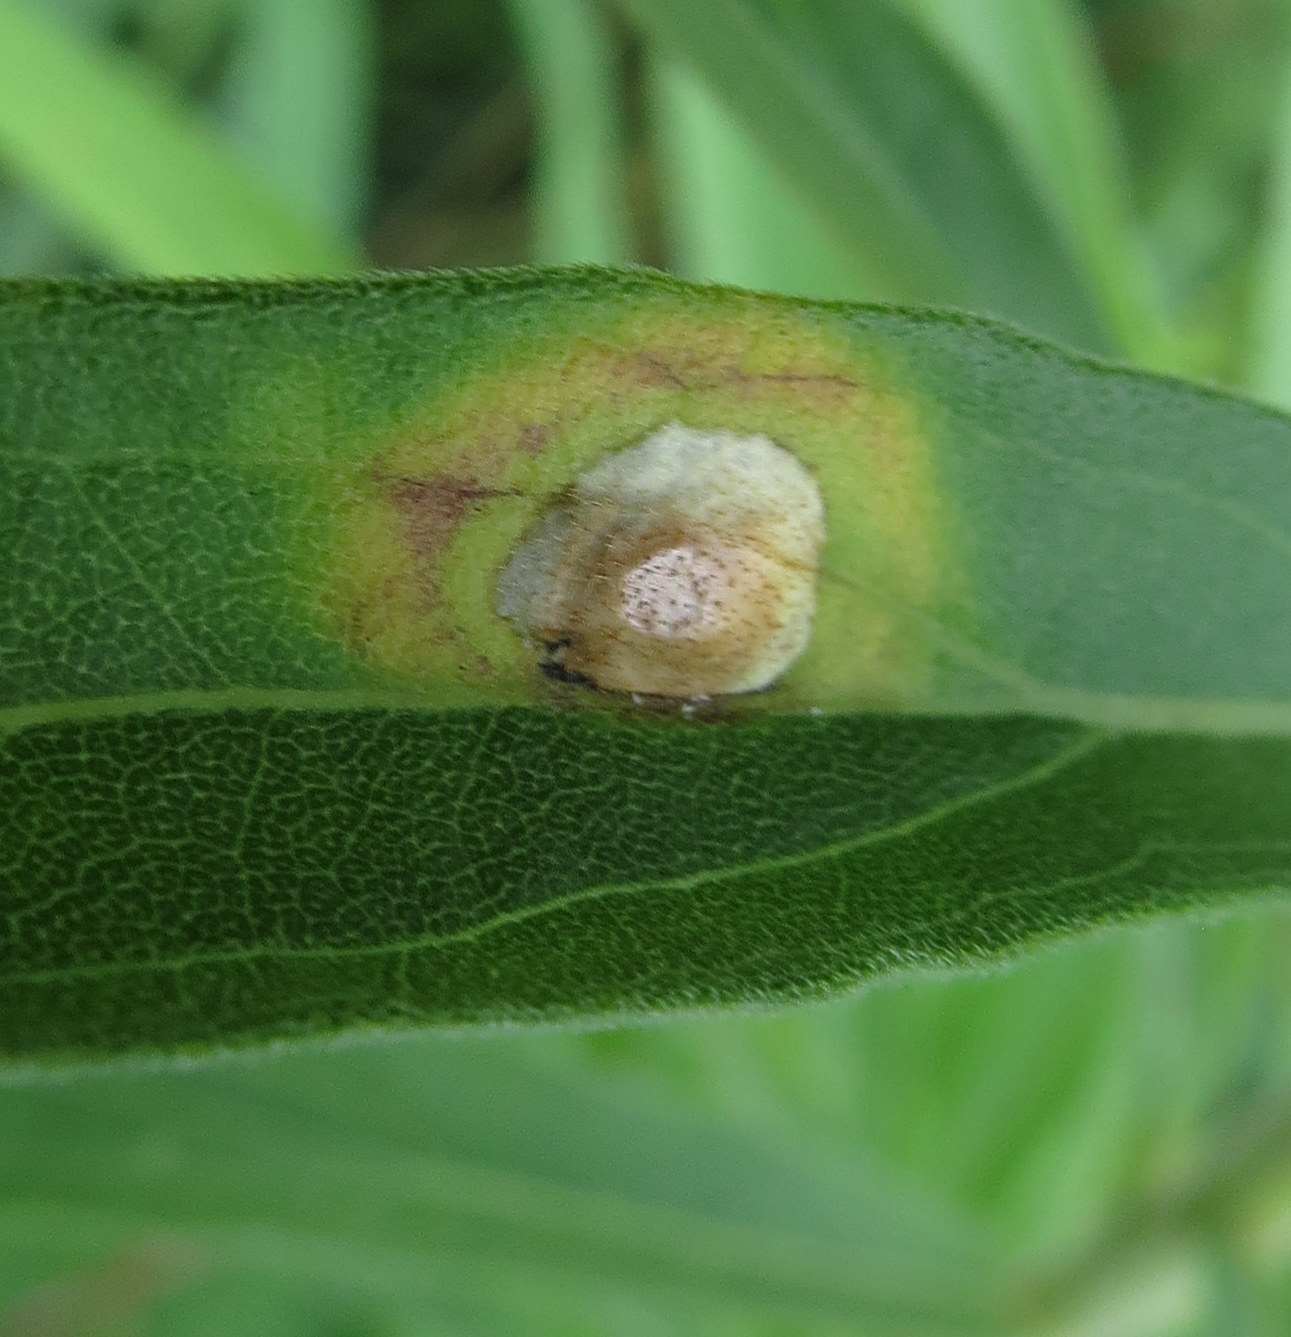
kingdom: Animalia
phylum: Arthropoda
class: Insecta
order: Diptera
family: Cecidomyiidae
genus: Asteromyia
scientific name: Asteromyia carbonifera
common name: Carbonifera goldenrod gall midge
